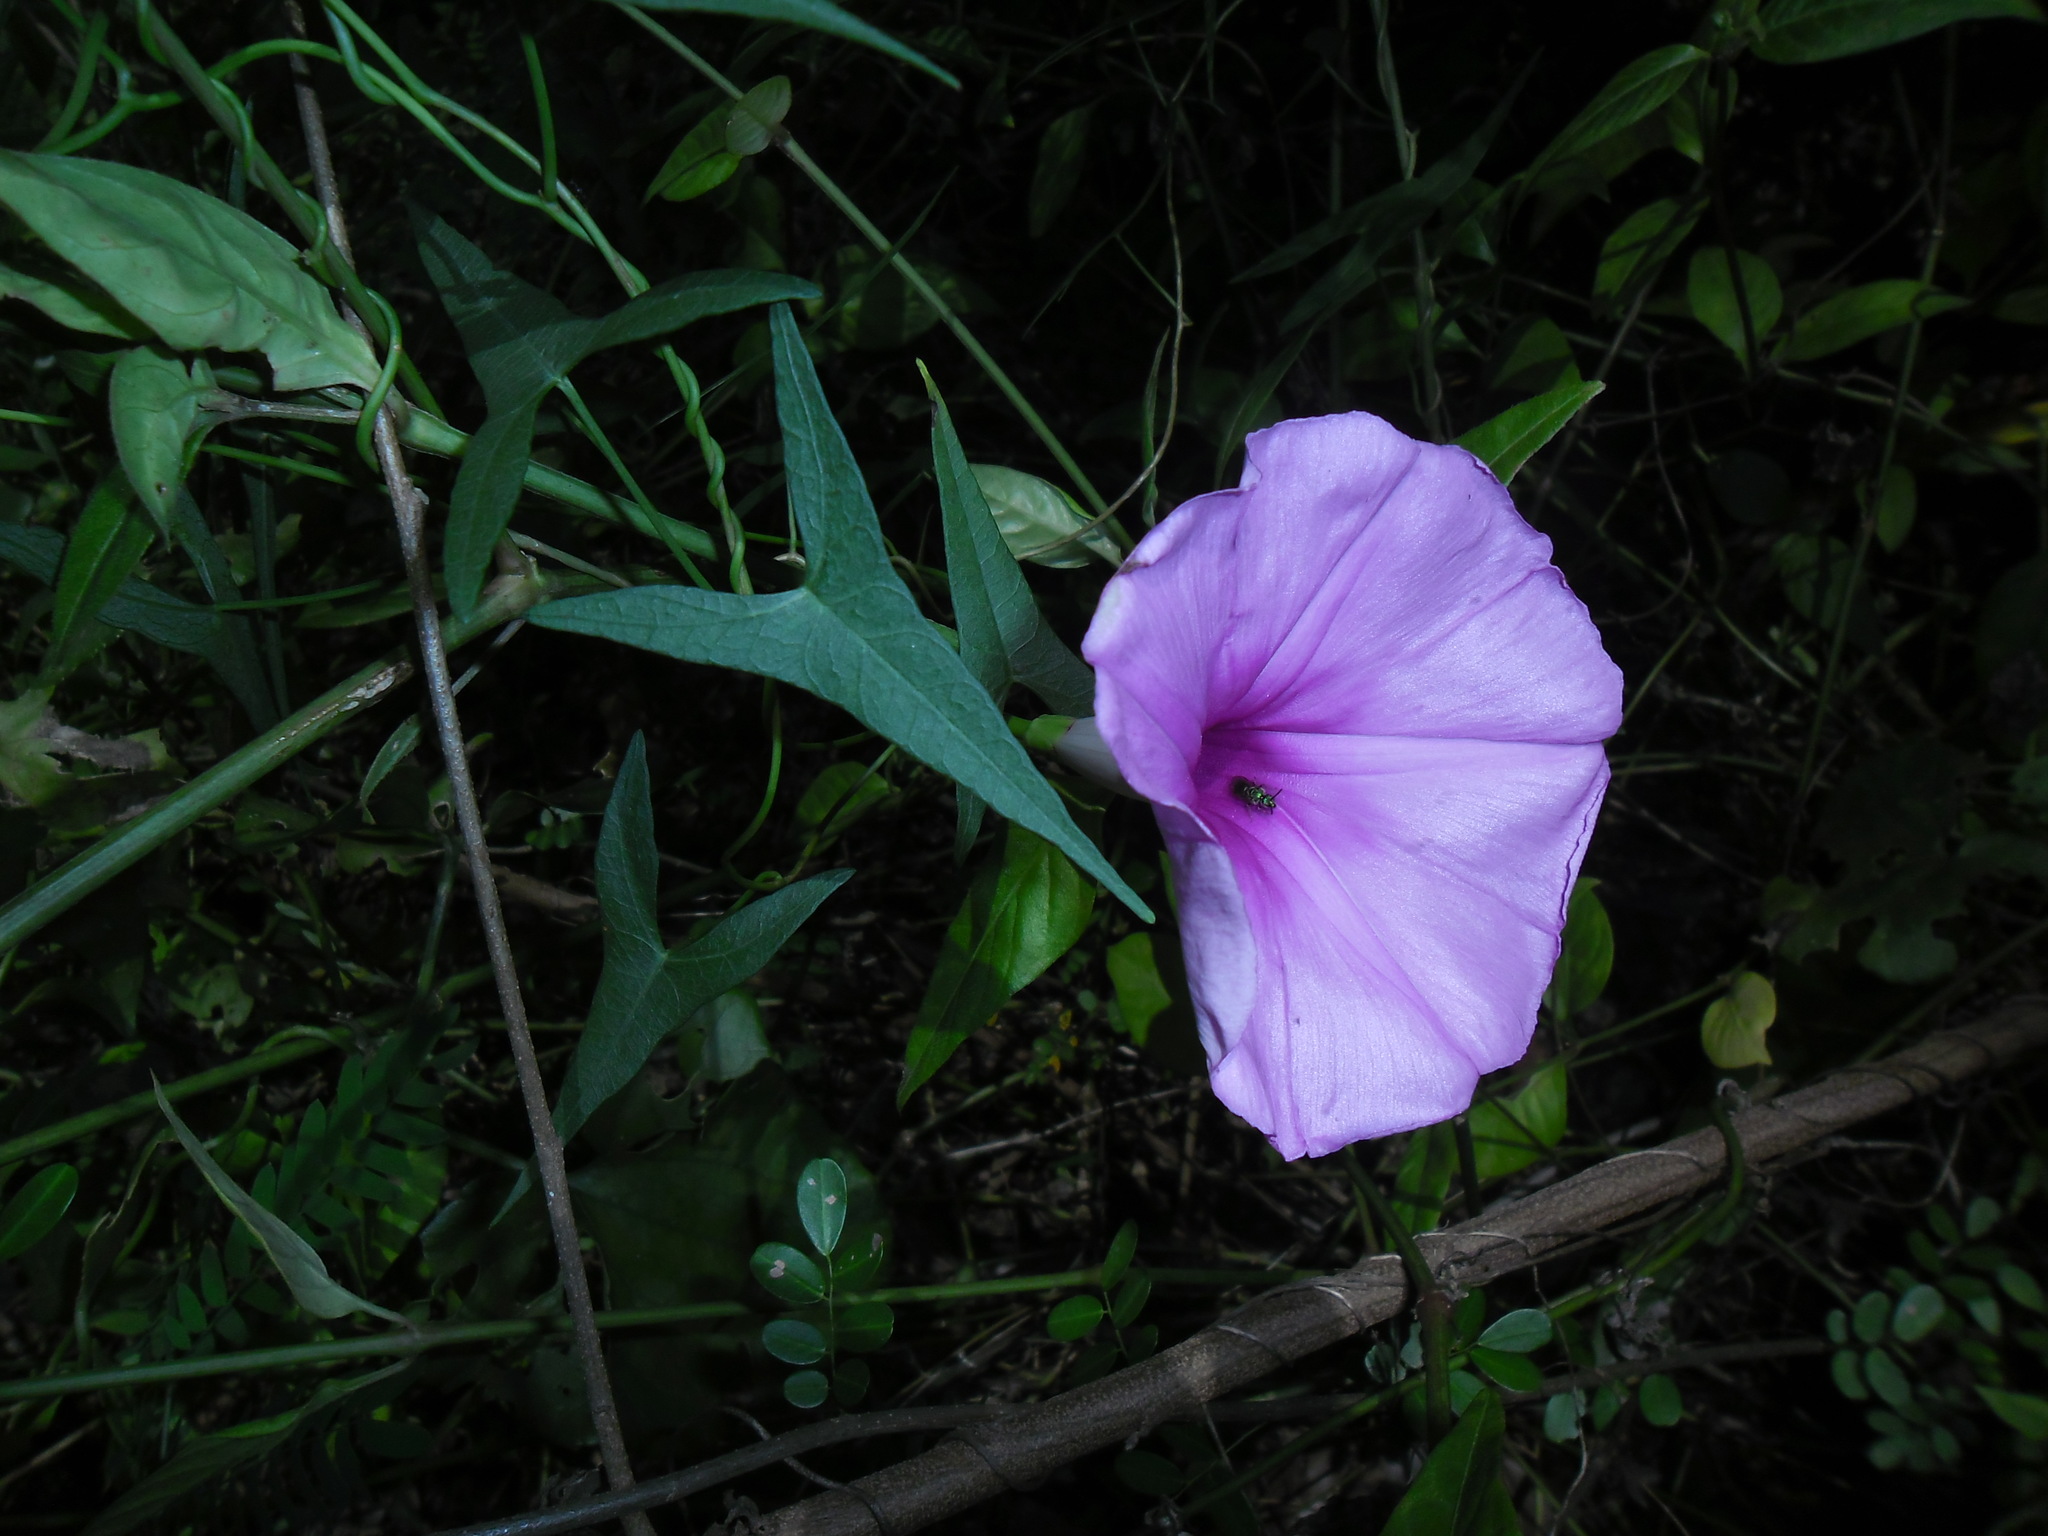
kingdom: Plantae
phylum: Tracheophyta
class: Magnoliopsida
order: Solanales
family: Convolvulaceae
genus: Ipomoea
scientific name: Ipomoea sagittata
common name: Saltmarsh morning glory
